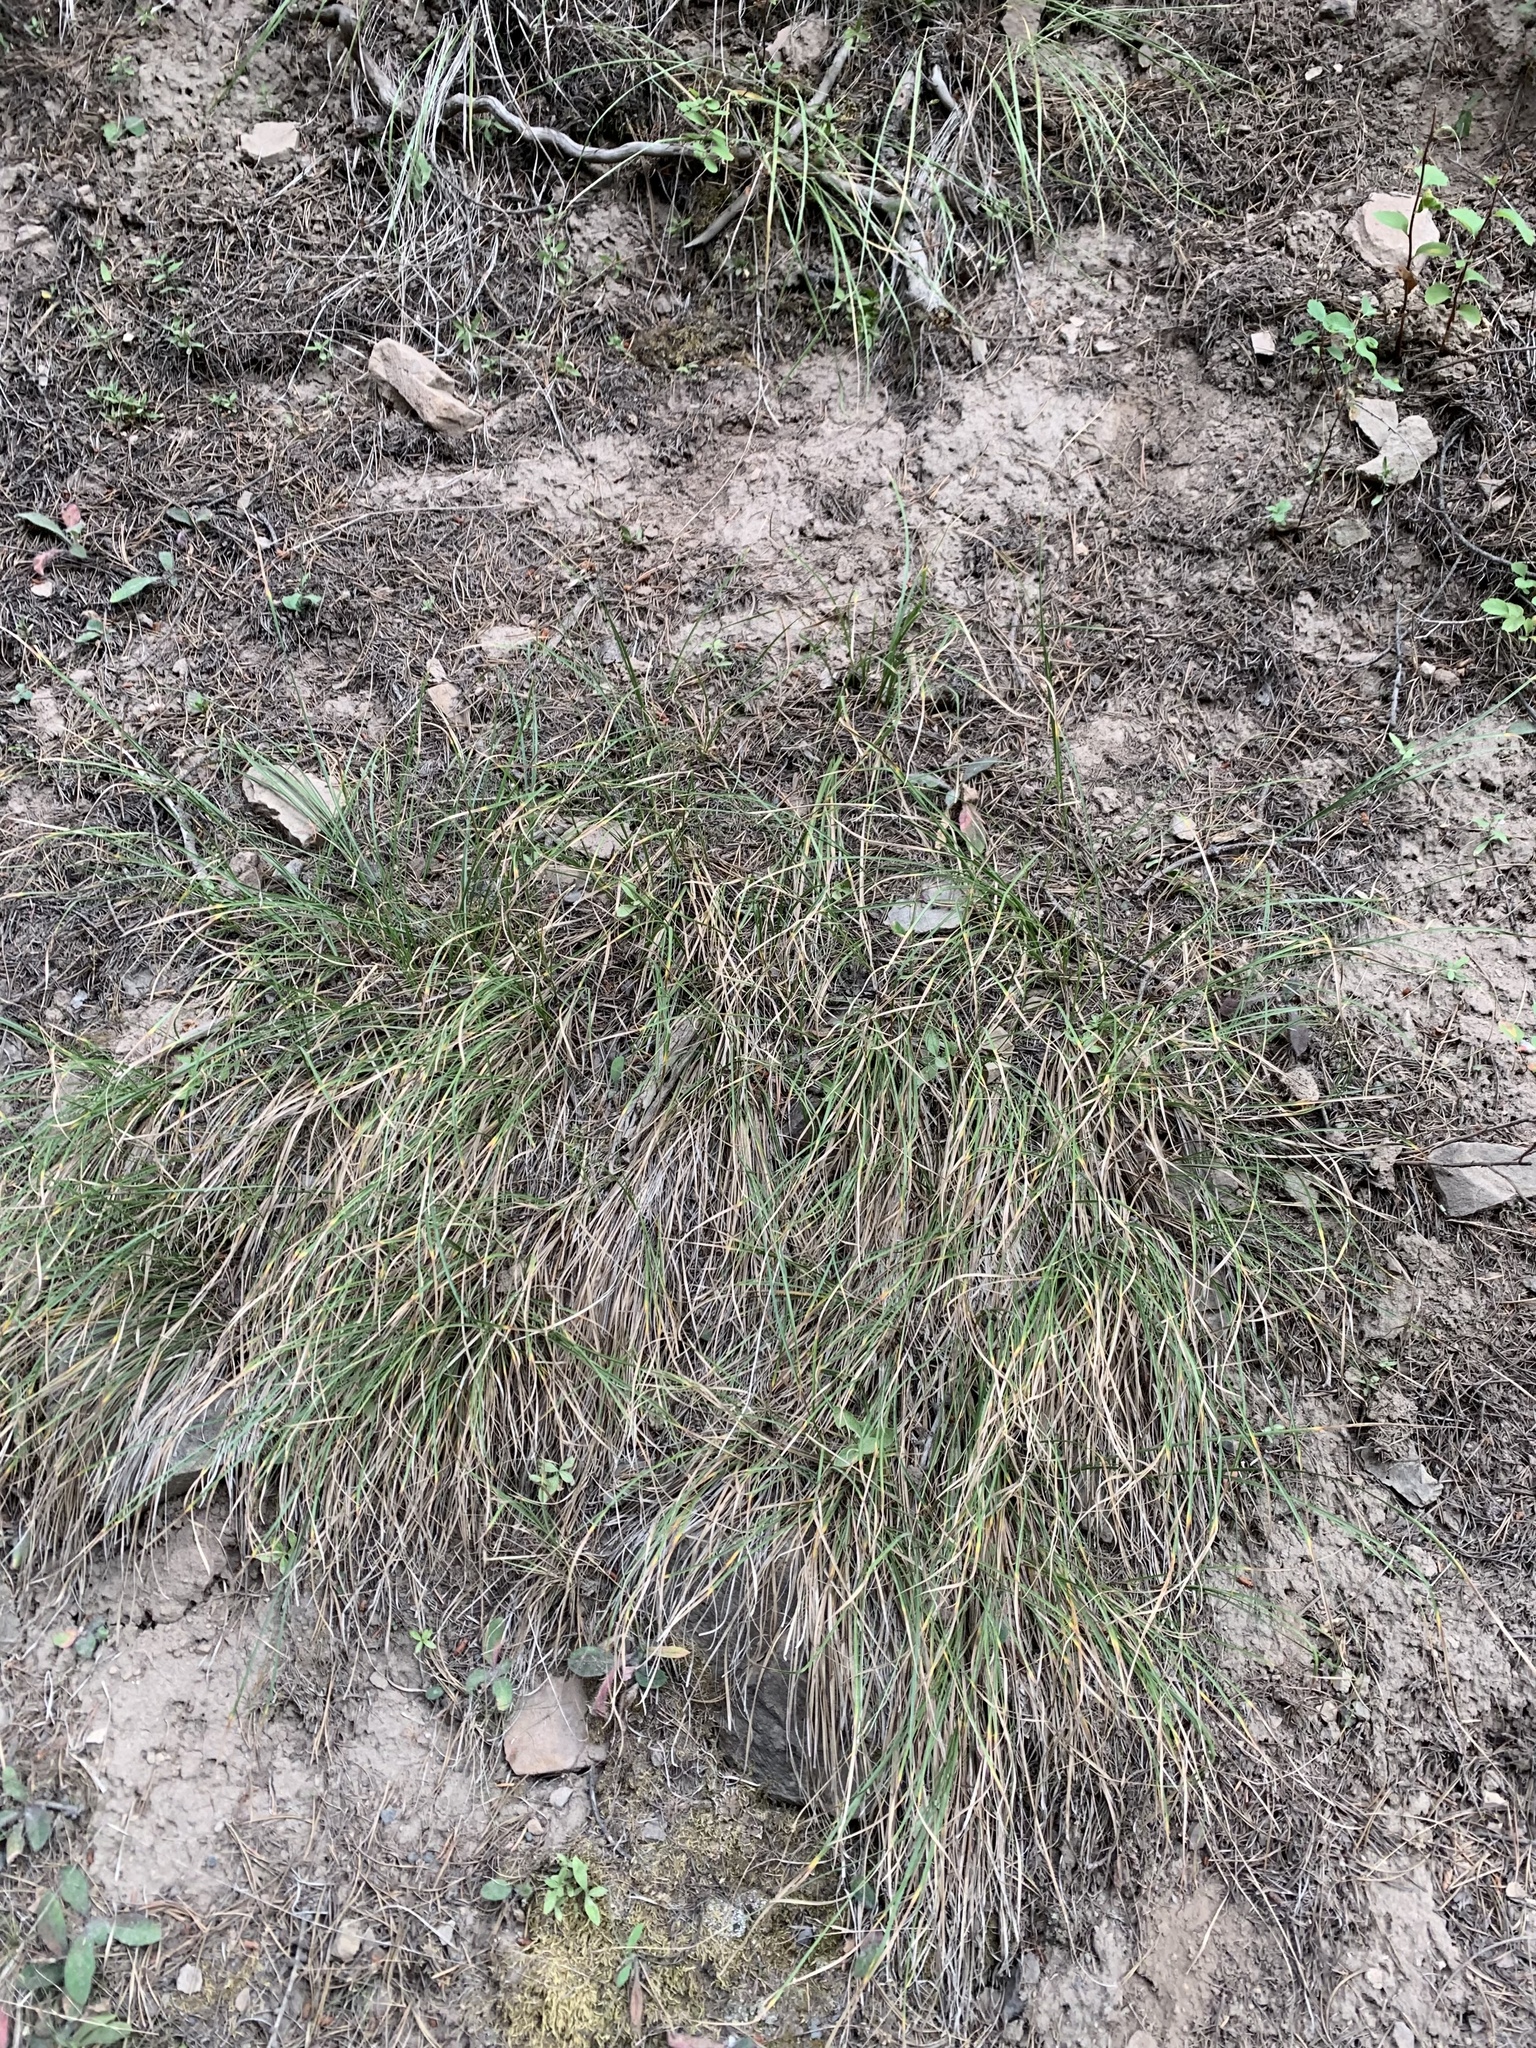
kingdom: Plantae
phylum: Tracheophyta
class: Liliopsida
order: Poales
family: Cyperaceae
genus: Carex
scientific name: Carex geyeri
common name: Elk sedge
